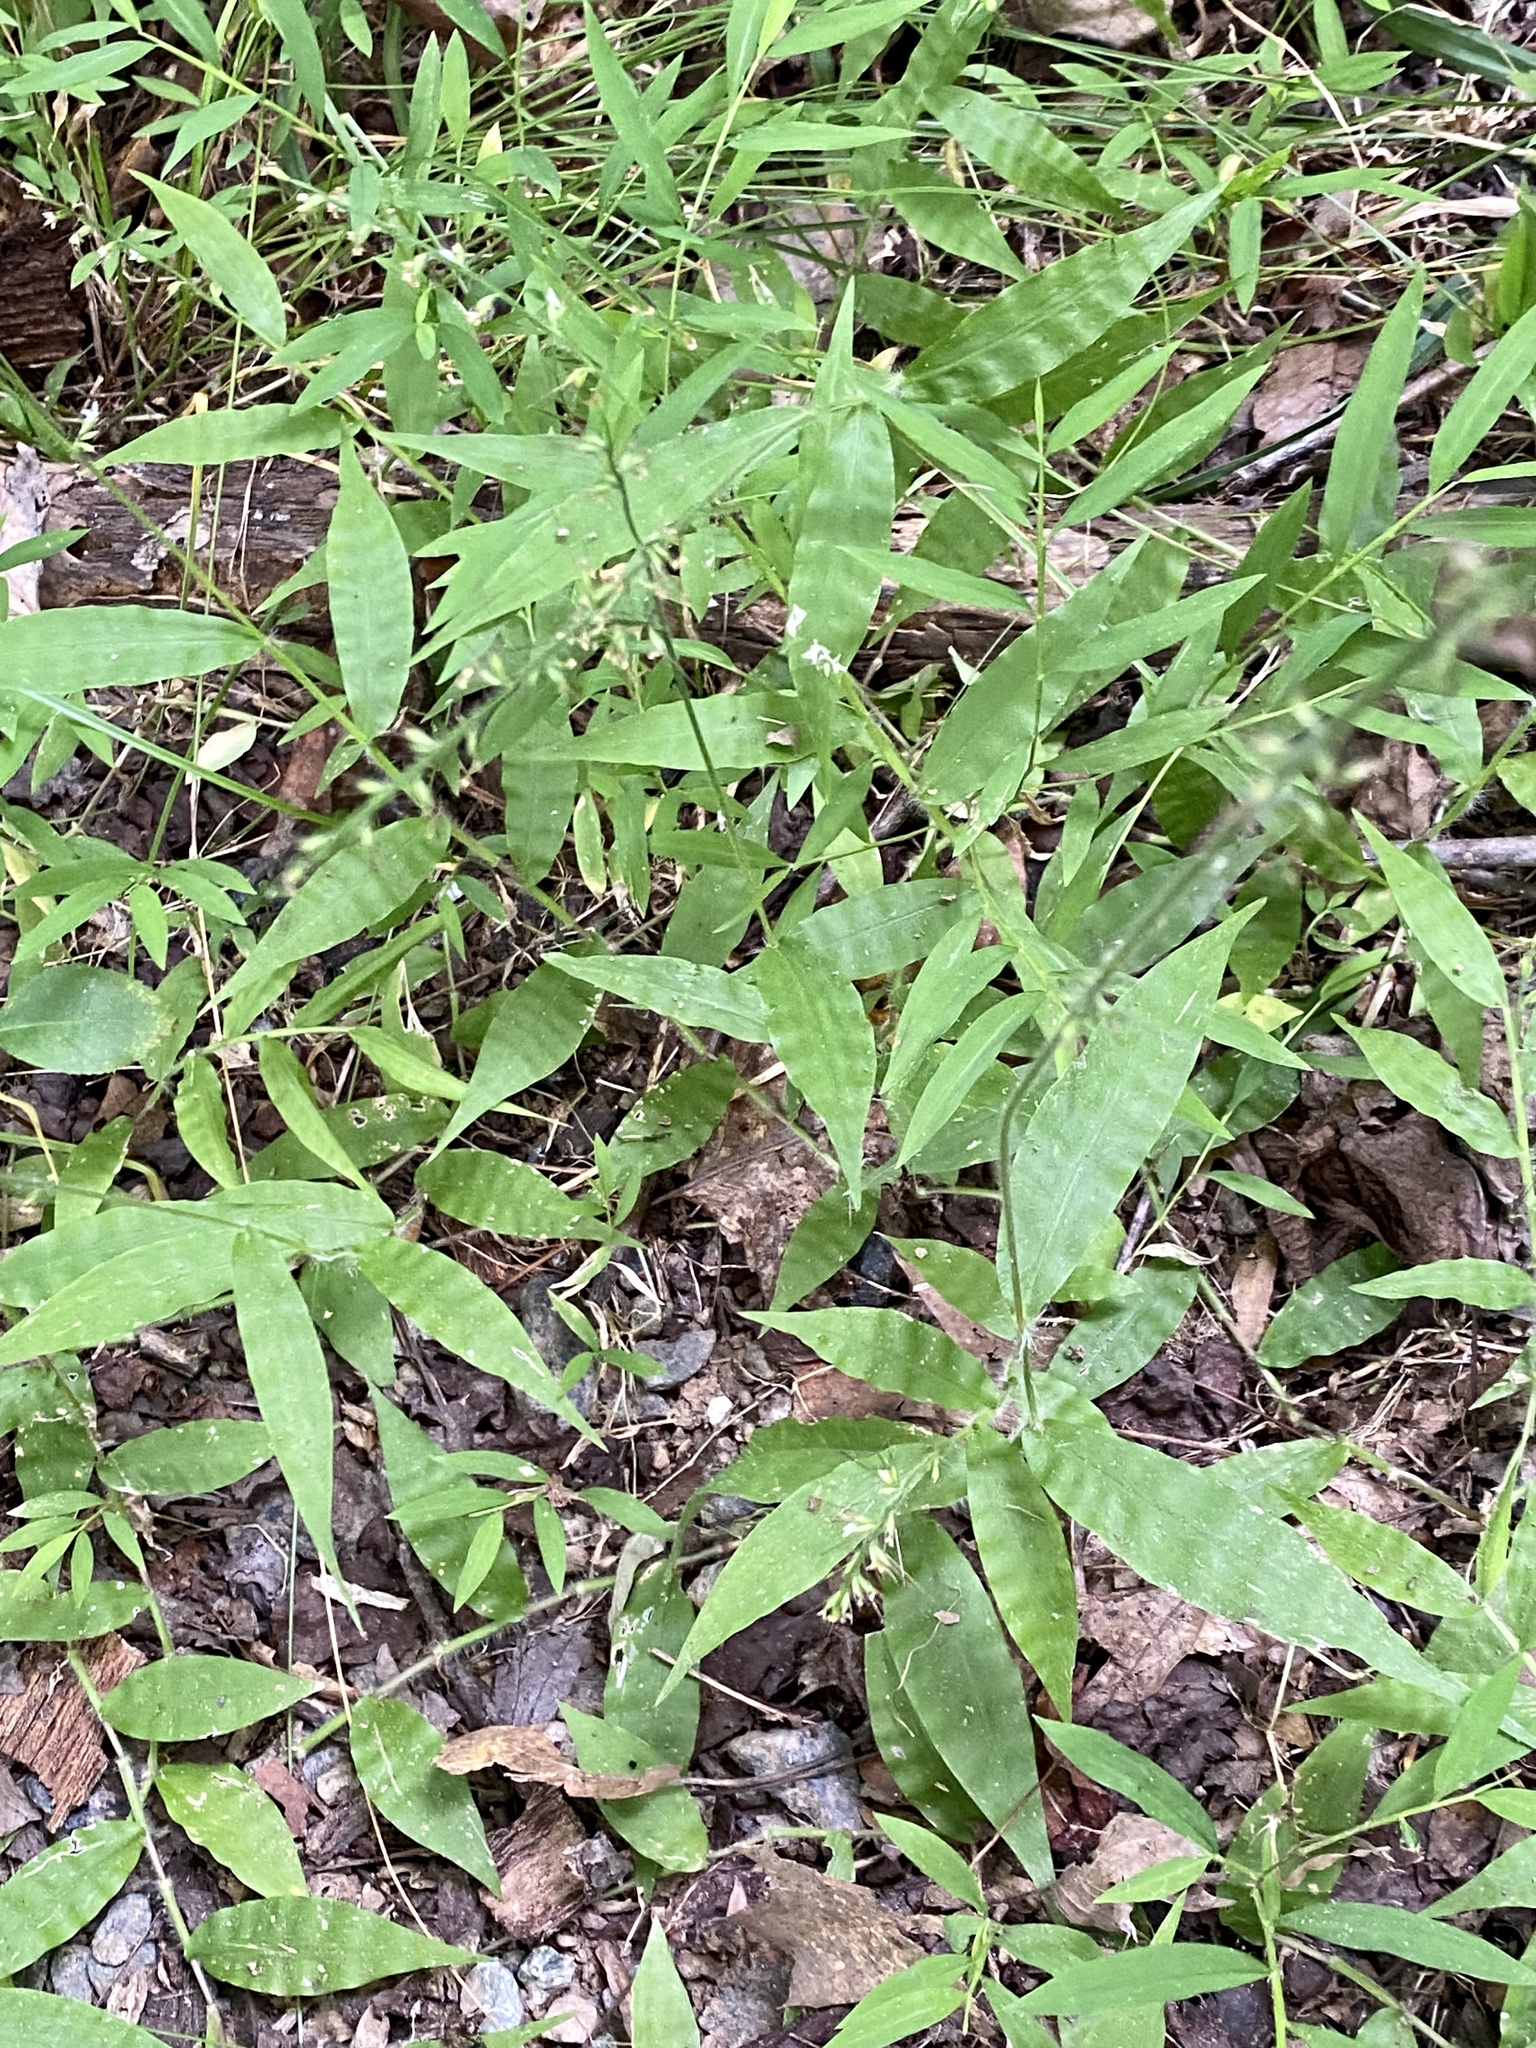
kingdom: Plantae
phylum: Tracheophyta
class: Liliopsida
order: Poales
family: Poaceae
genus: Oplismenus
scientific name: Oplismenus undulatifolius
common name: Wavyleaf basketgrass
